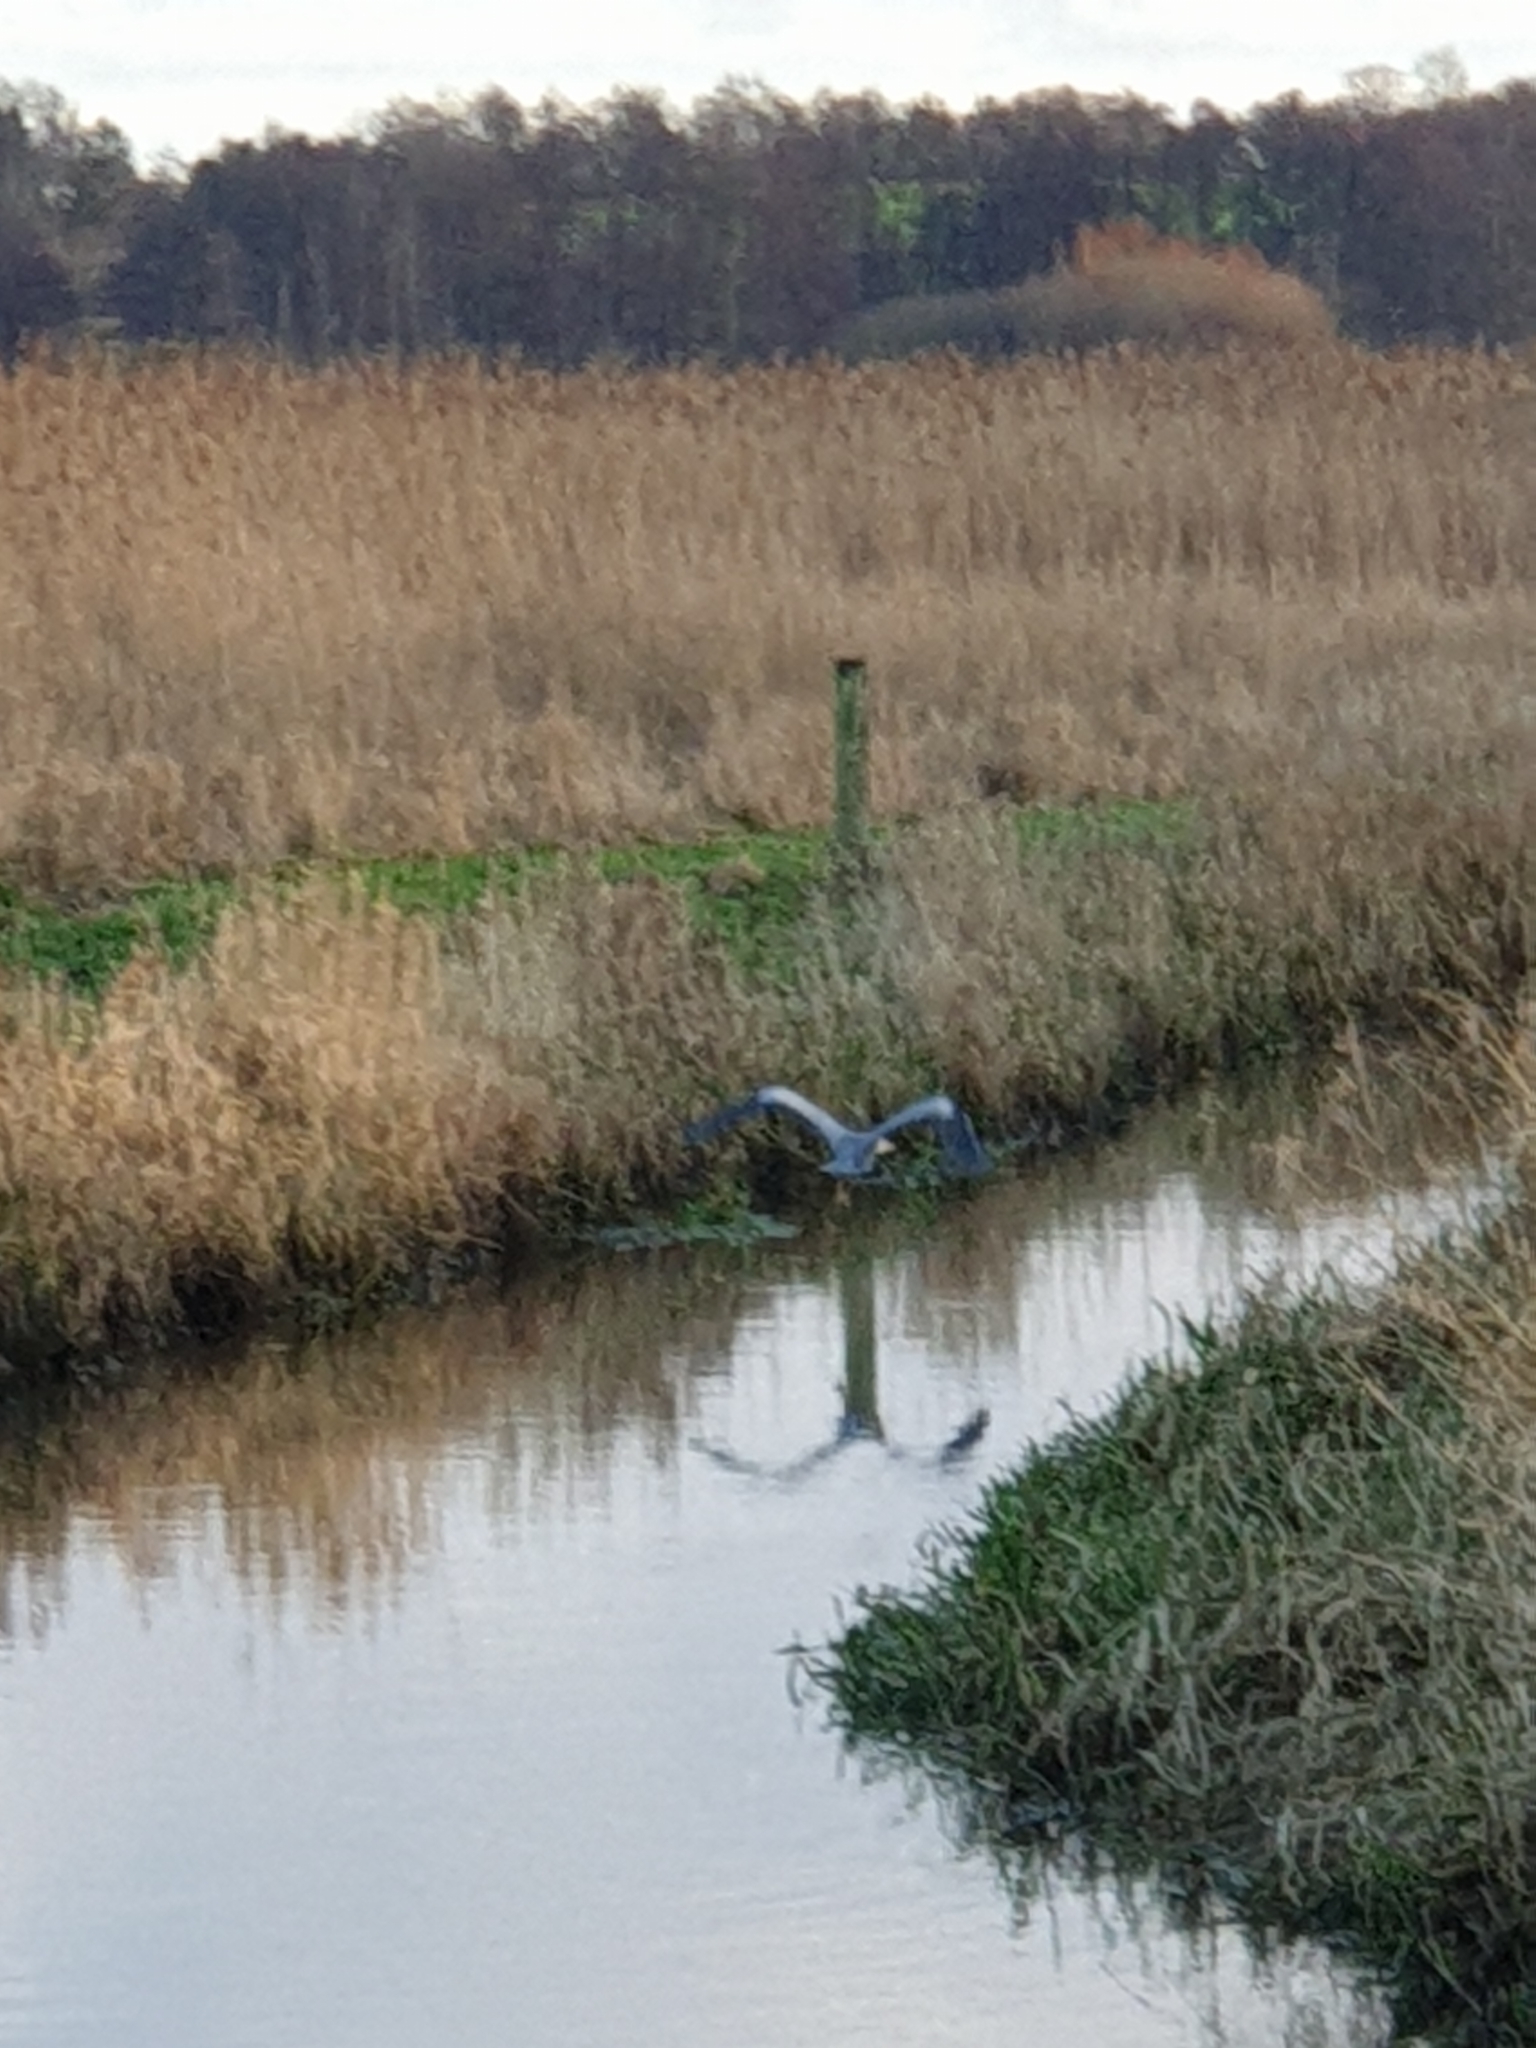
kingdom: Animalia
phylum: Chordata
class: Aves
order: Pelecaniformes
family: Ardeidae
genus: Ardea
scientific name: Ardea cinerea
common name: Grey heron
